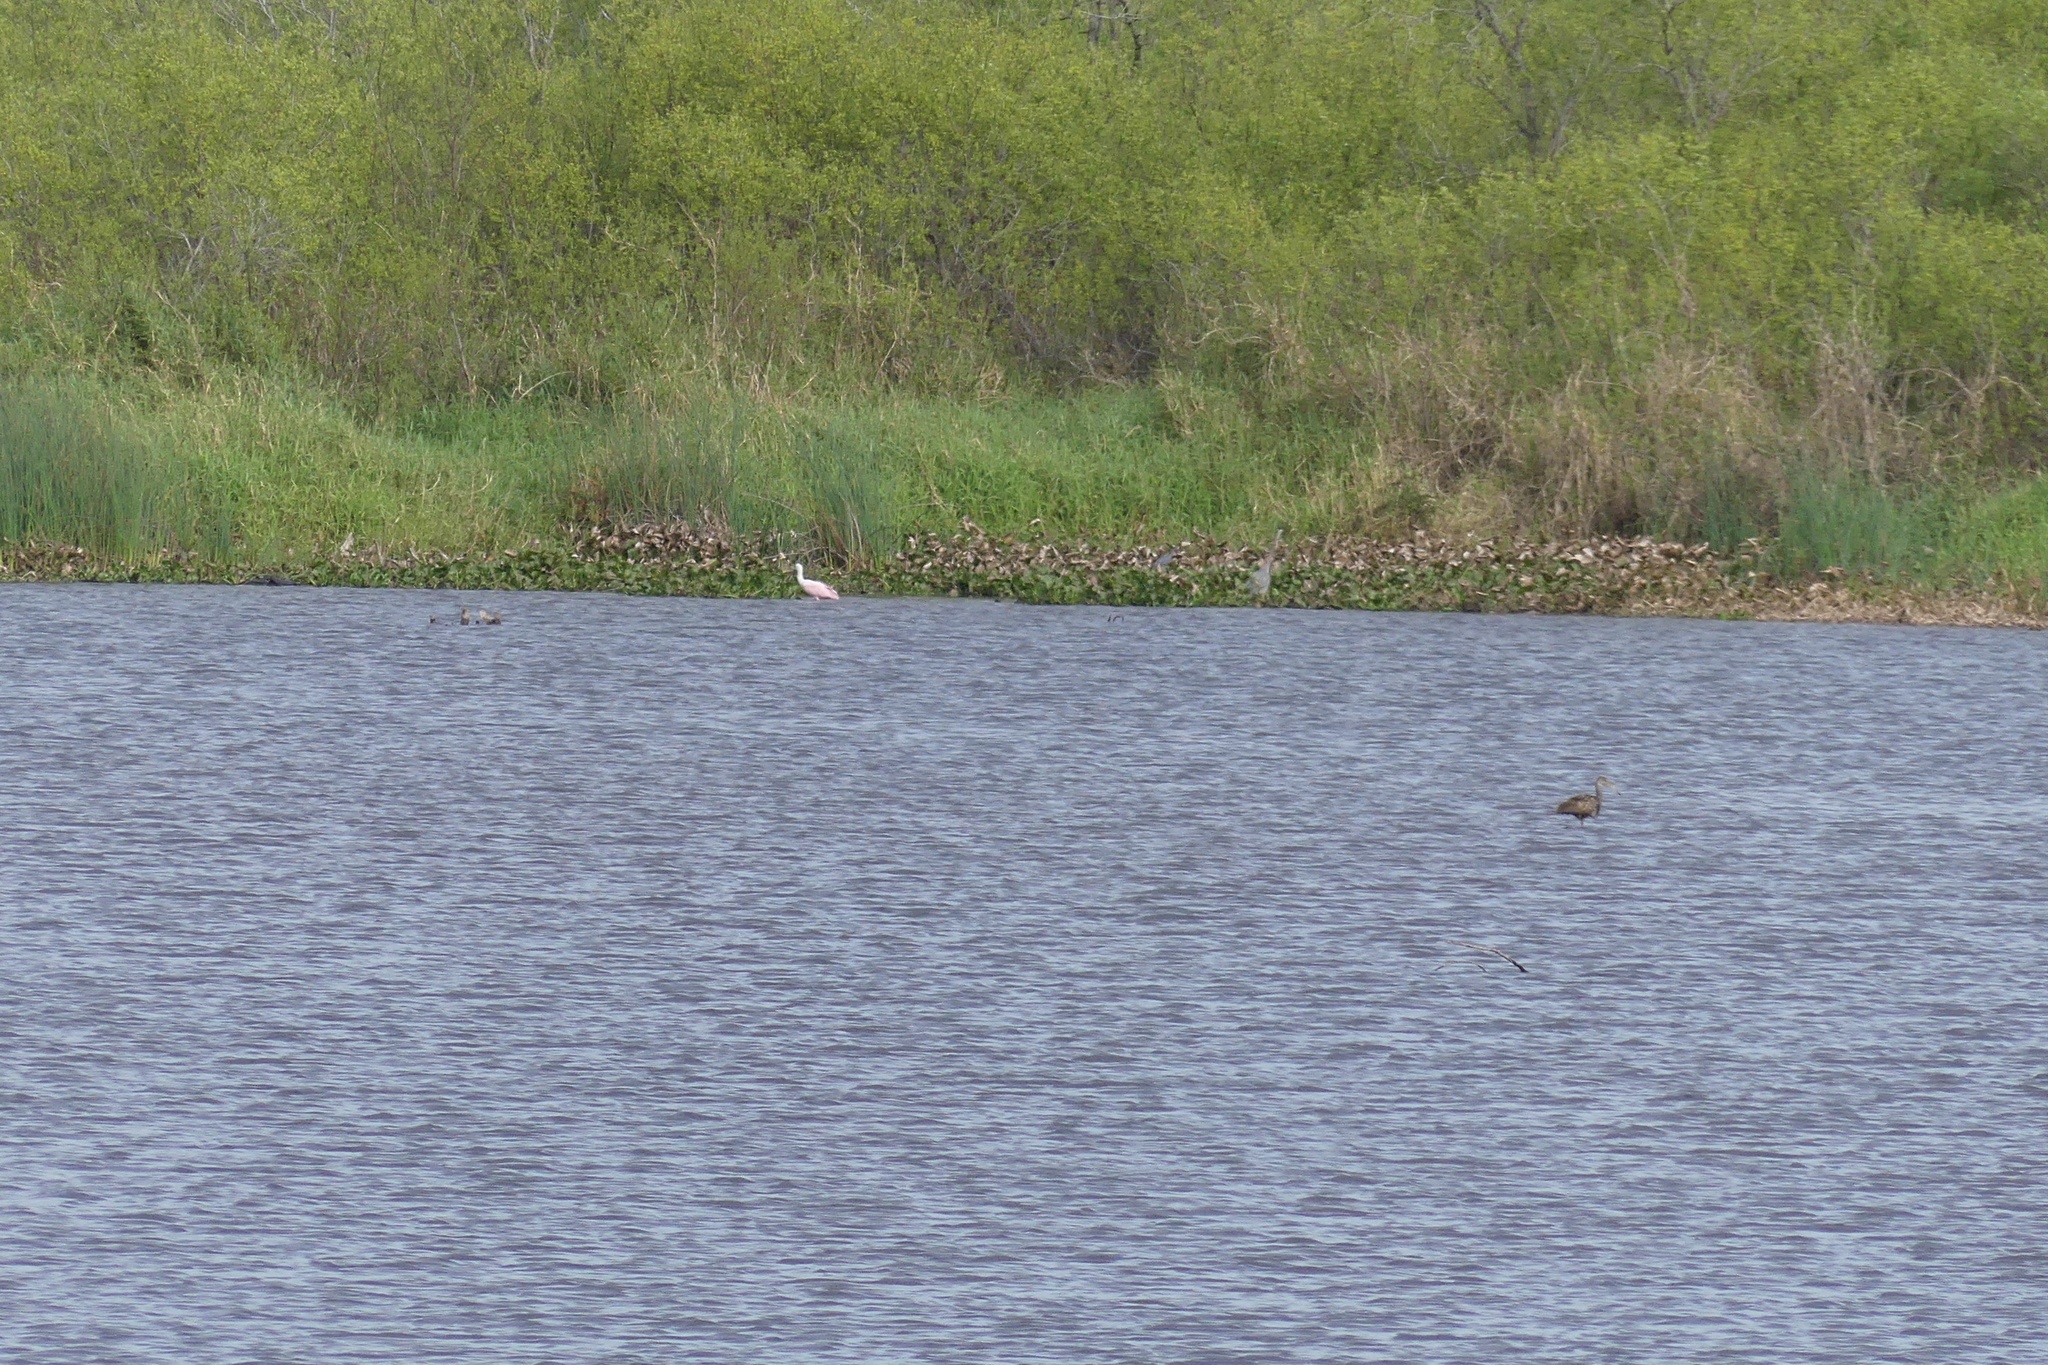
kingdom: Animalia
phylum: Chordata
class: Aves
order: Pelecaniformes
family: Threskiornithidae
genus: Platalea
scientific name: Platalea ajaja
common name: Roseate spoonbill
